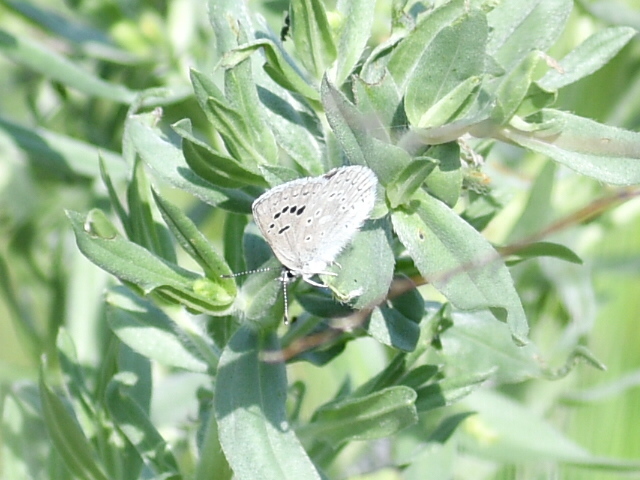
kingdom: Animalia
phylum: Arthropoda
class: Insecta
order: Lepidoptera
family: Lycaenidae
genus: Icaricia
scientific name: Icaricia icarioides
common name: Boisduval's blue
